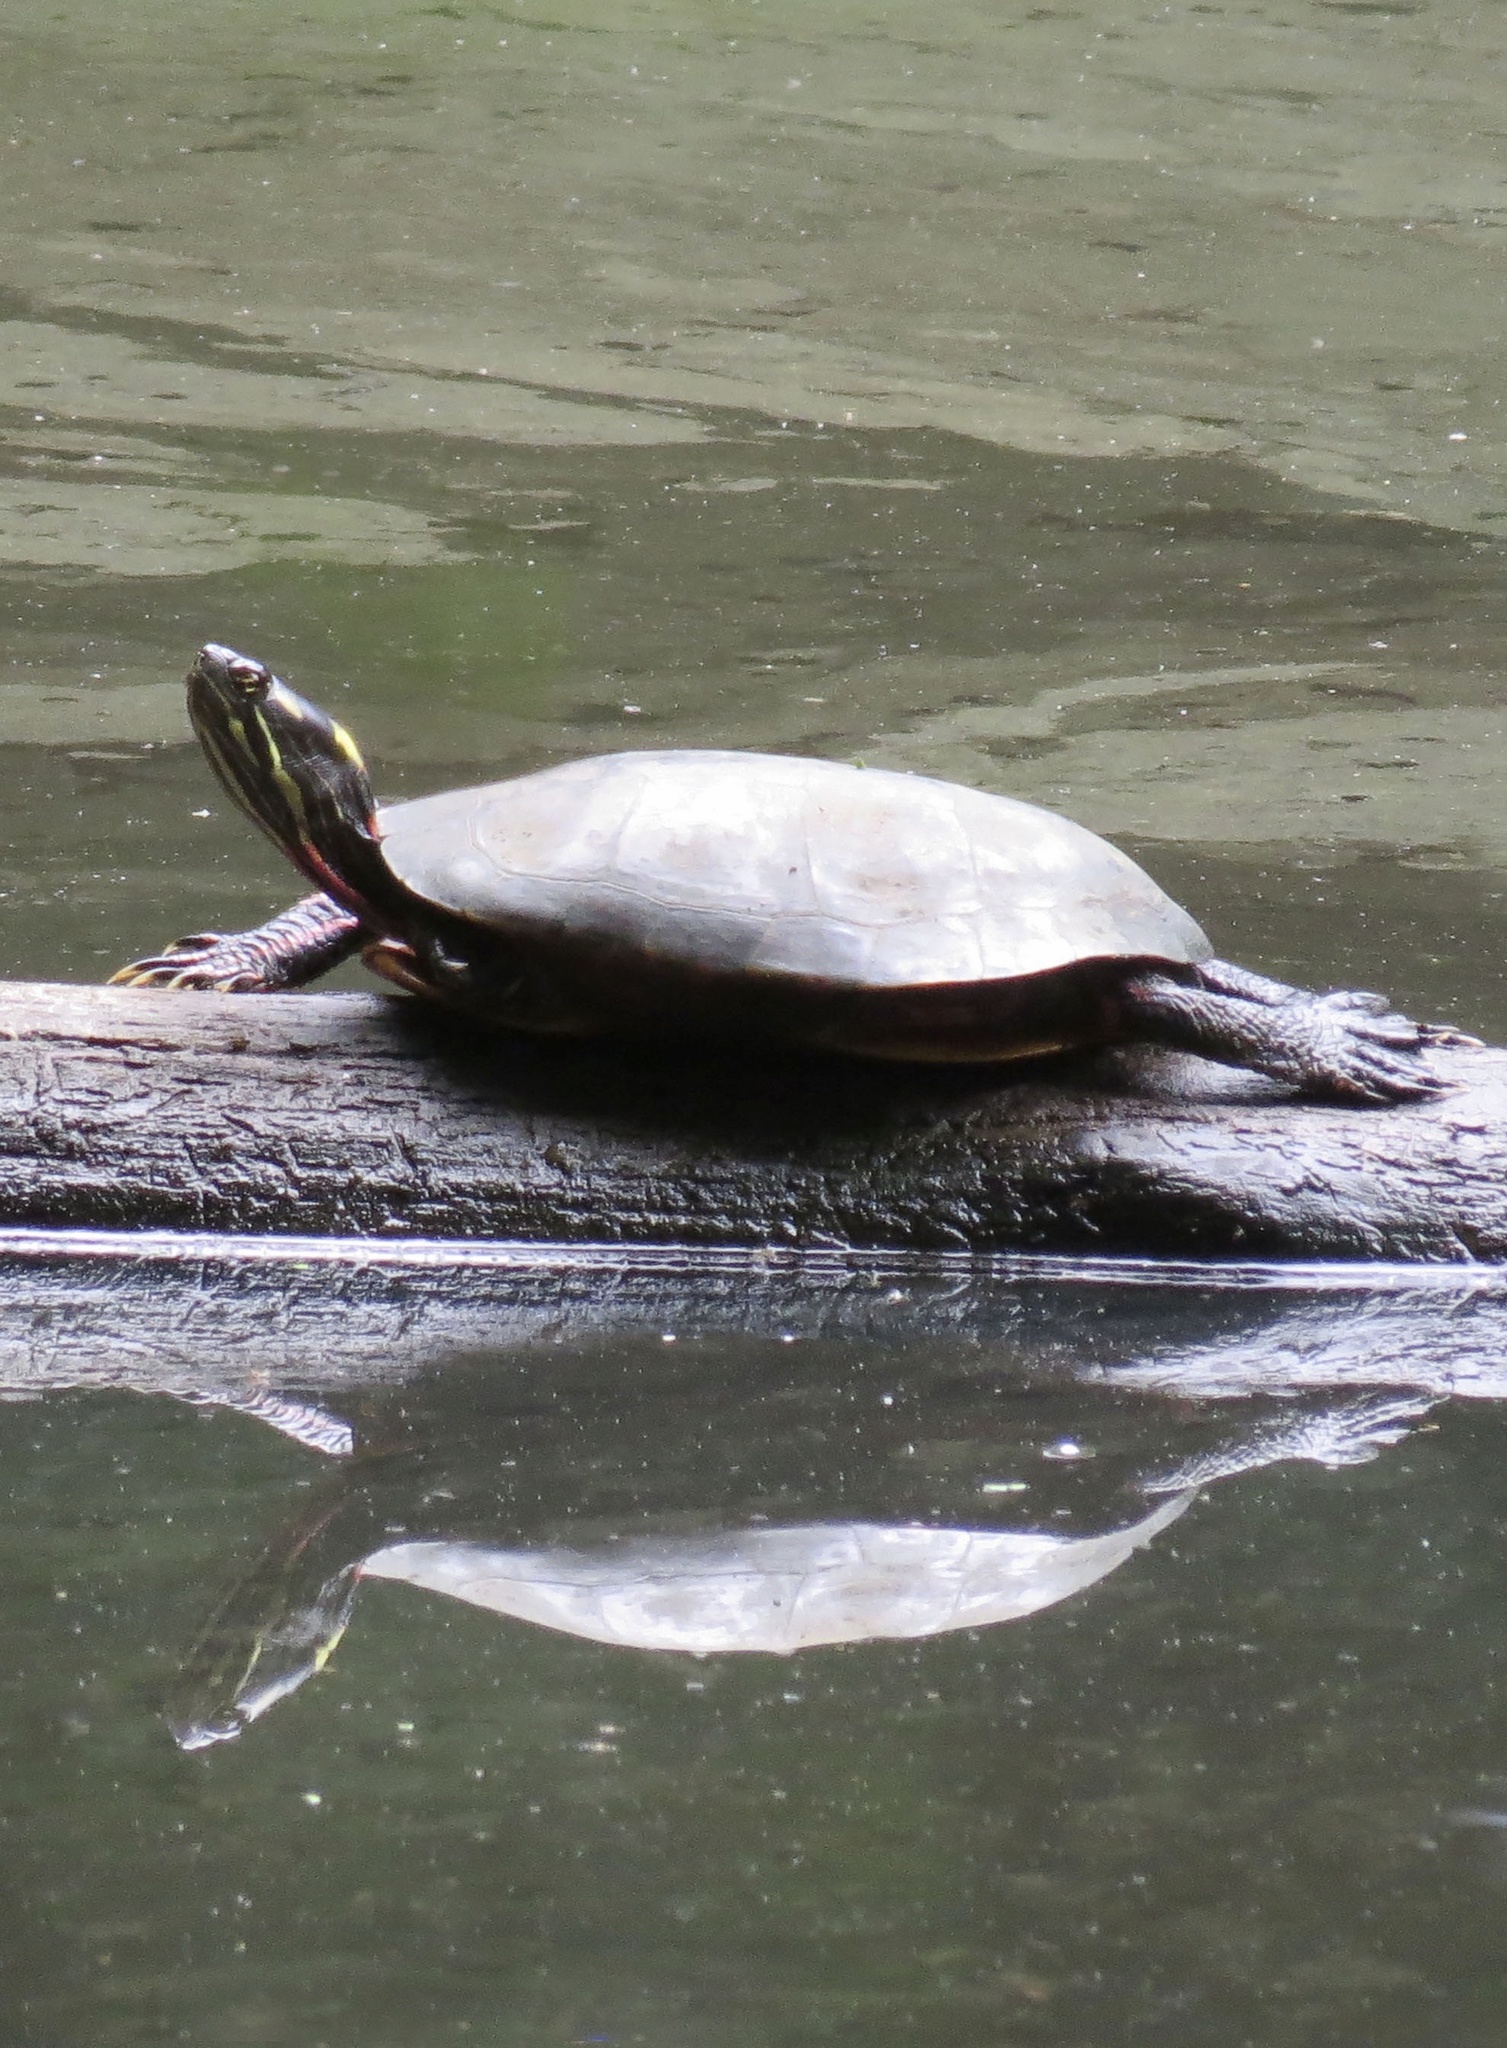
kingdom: Animalia
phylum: Chordata
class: Testudines
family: Emydidae
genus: Chrysemys
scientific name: Chrysemys picta
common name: Painted turtle
